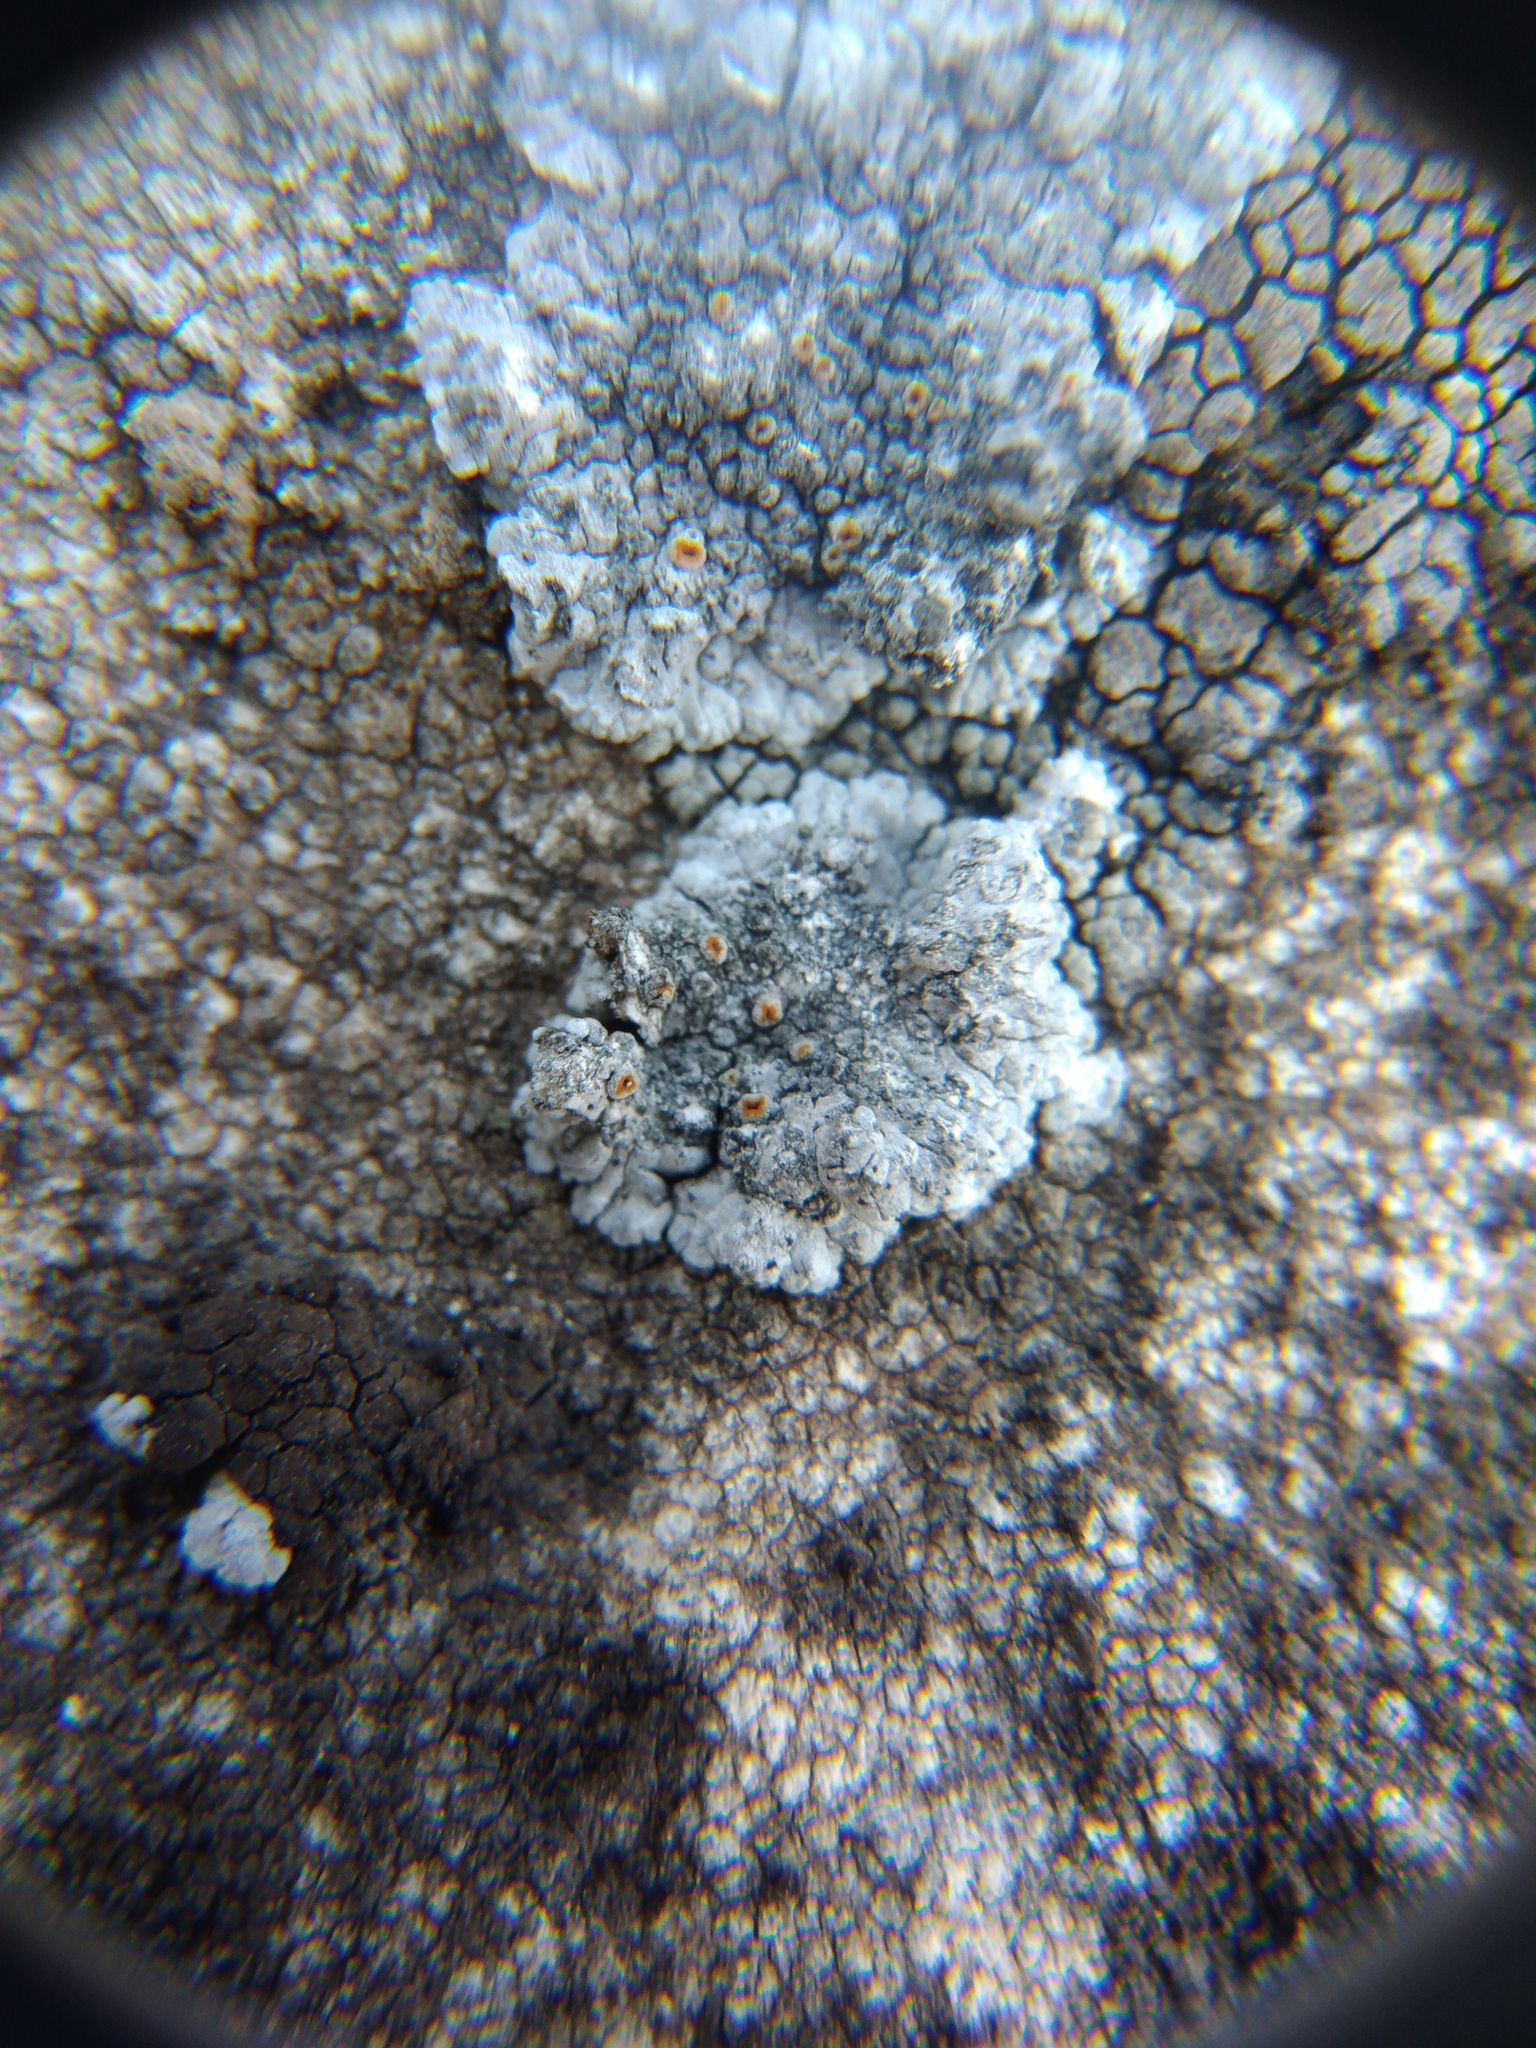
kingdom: Fungi
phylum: Ascomycota
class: Lecanoromycetes
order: Teloschistales
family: Teloschistaceae
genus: Kuettlingeria
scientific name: Kuettlingeria teicholyta
